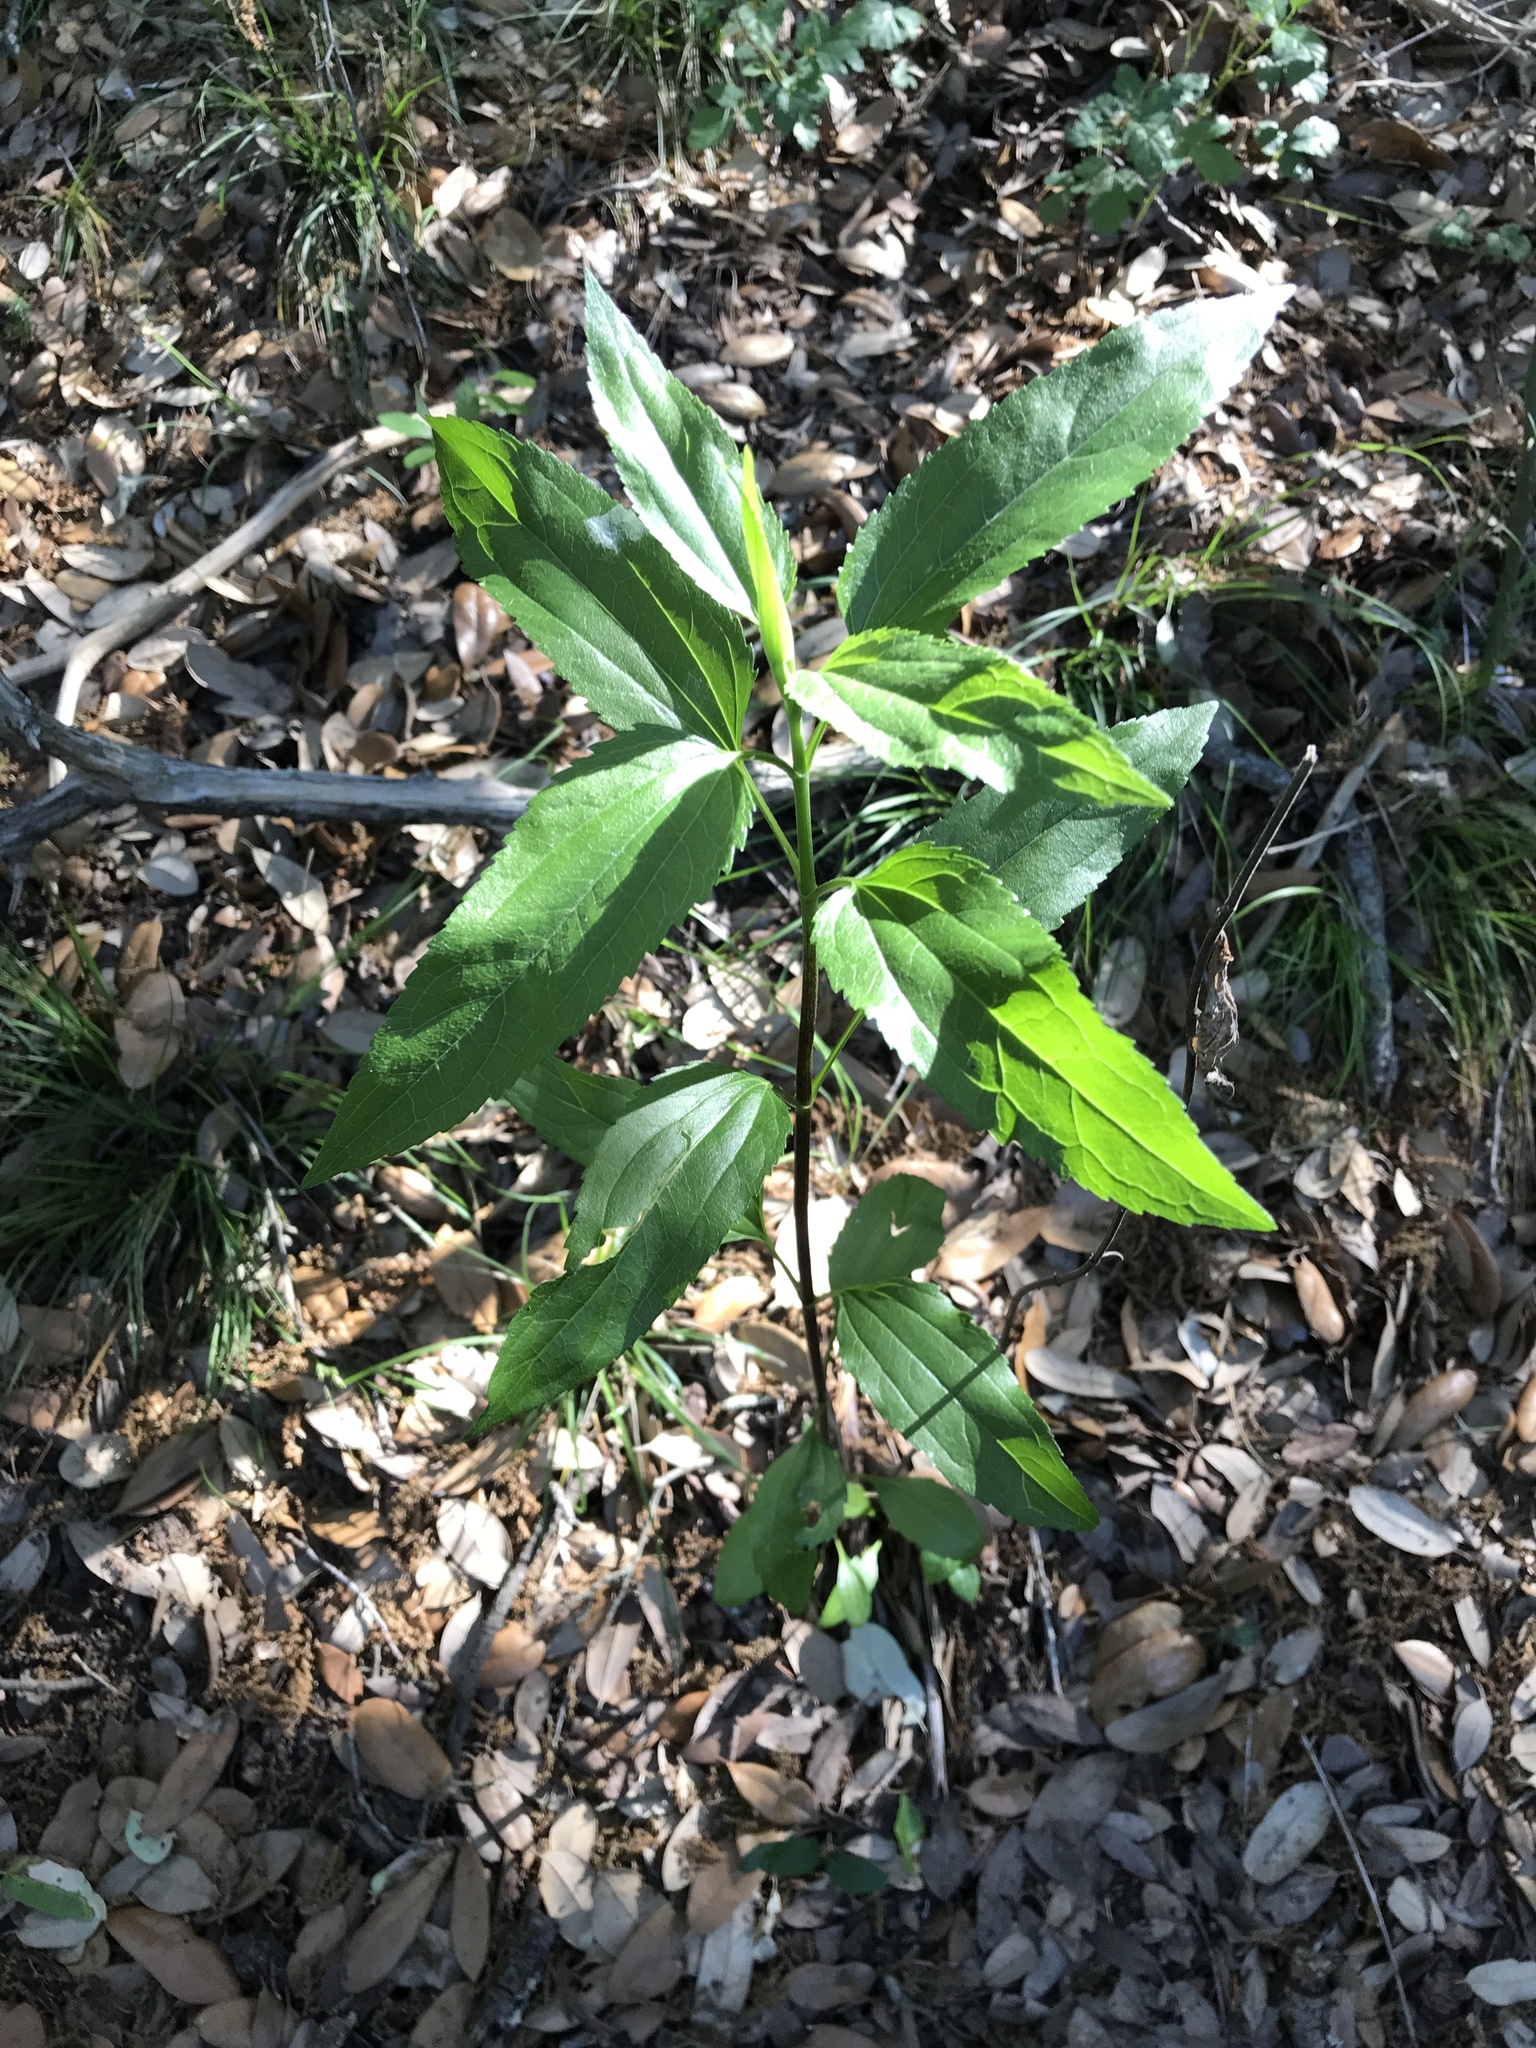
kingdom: Plantae
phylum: Tracheophyta
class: Magnoliopsida
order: Asterales
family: Asteraceae
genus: Eupatorium
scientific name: Eupatorium serotinum
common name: Late boneset
